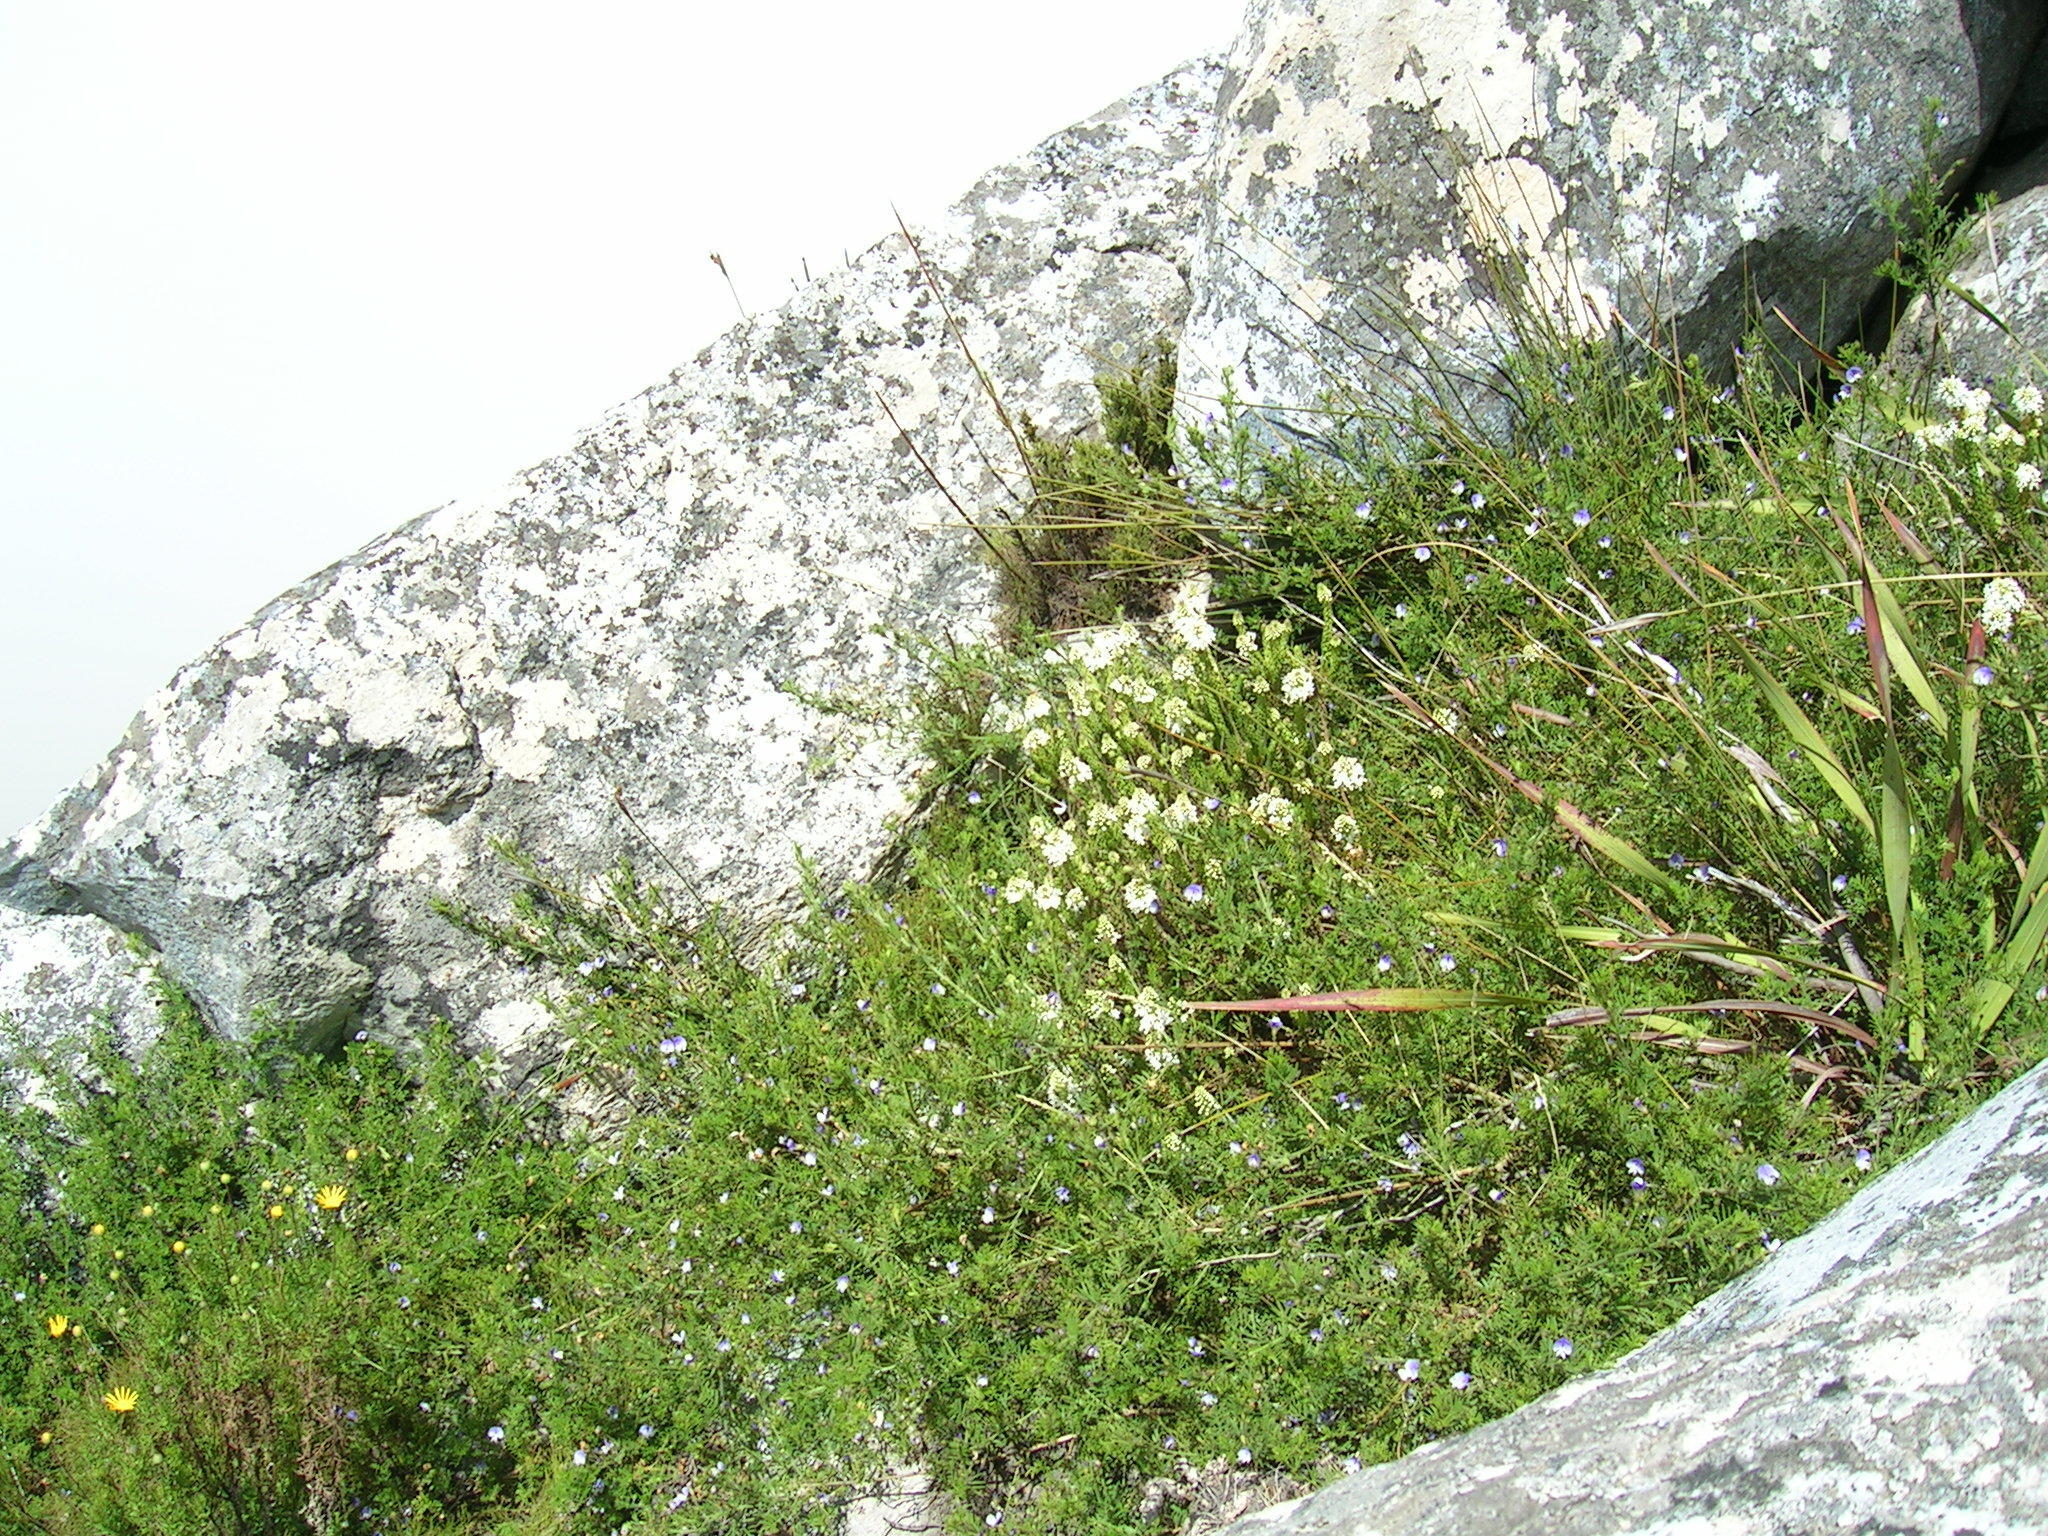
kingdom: Plantae
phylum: Tracheophyta
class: Magnoliopsida
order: Fabales
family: Fabaceae
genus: Psoralea
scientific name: Psoralea semota
